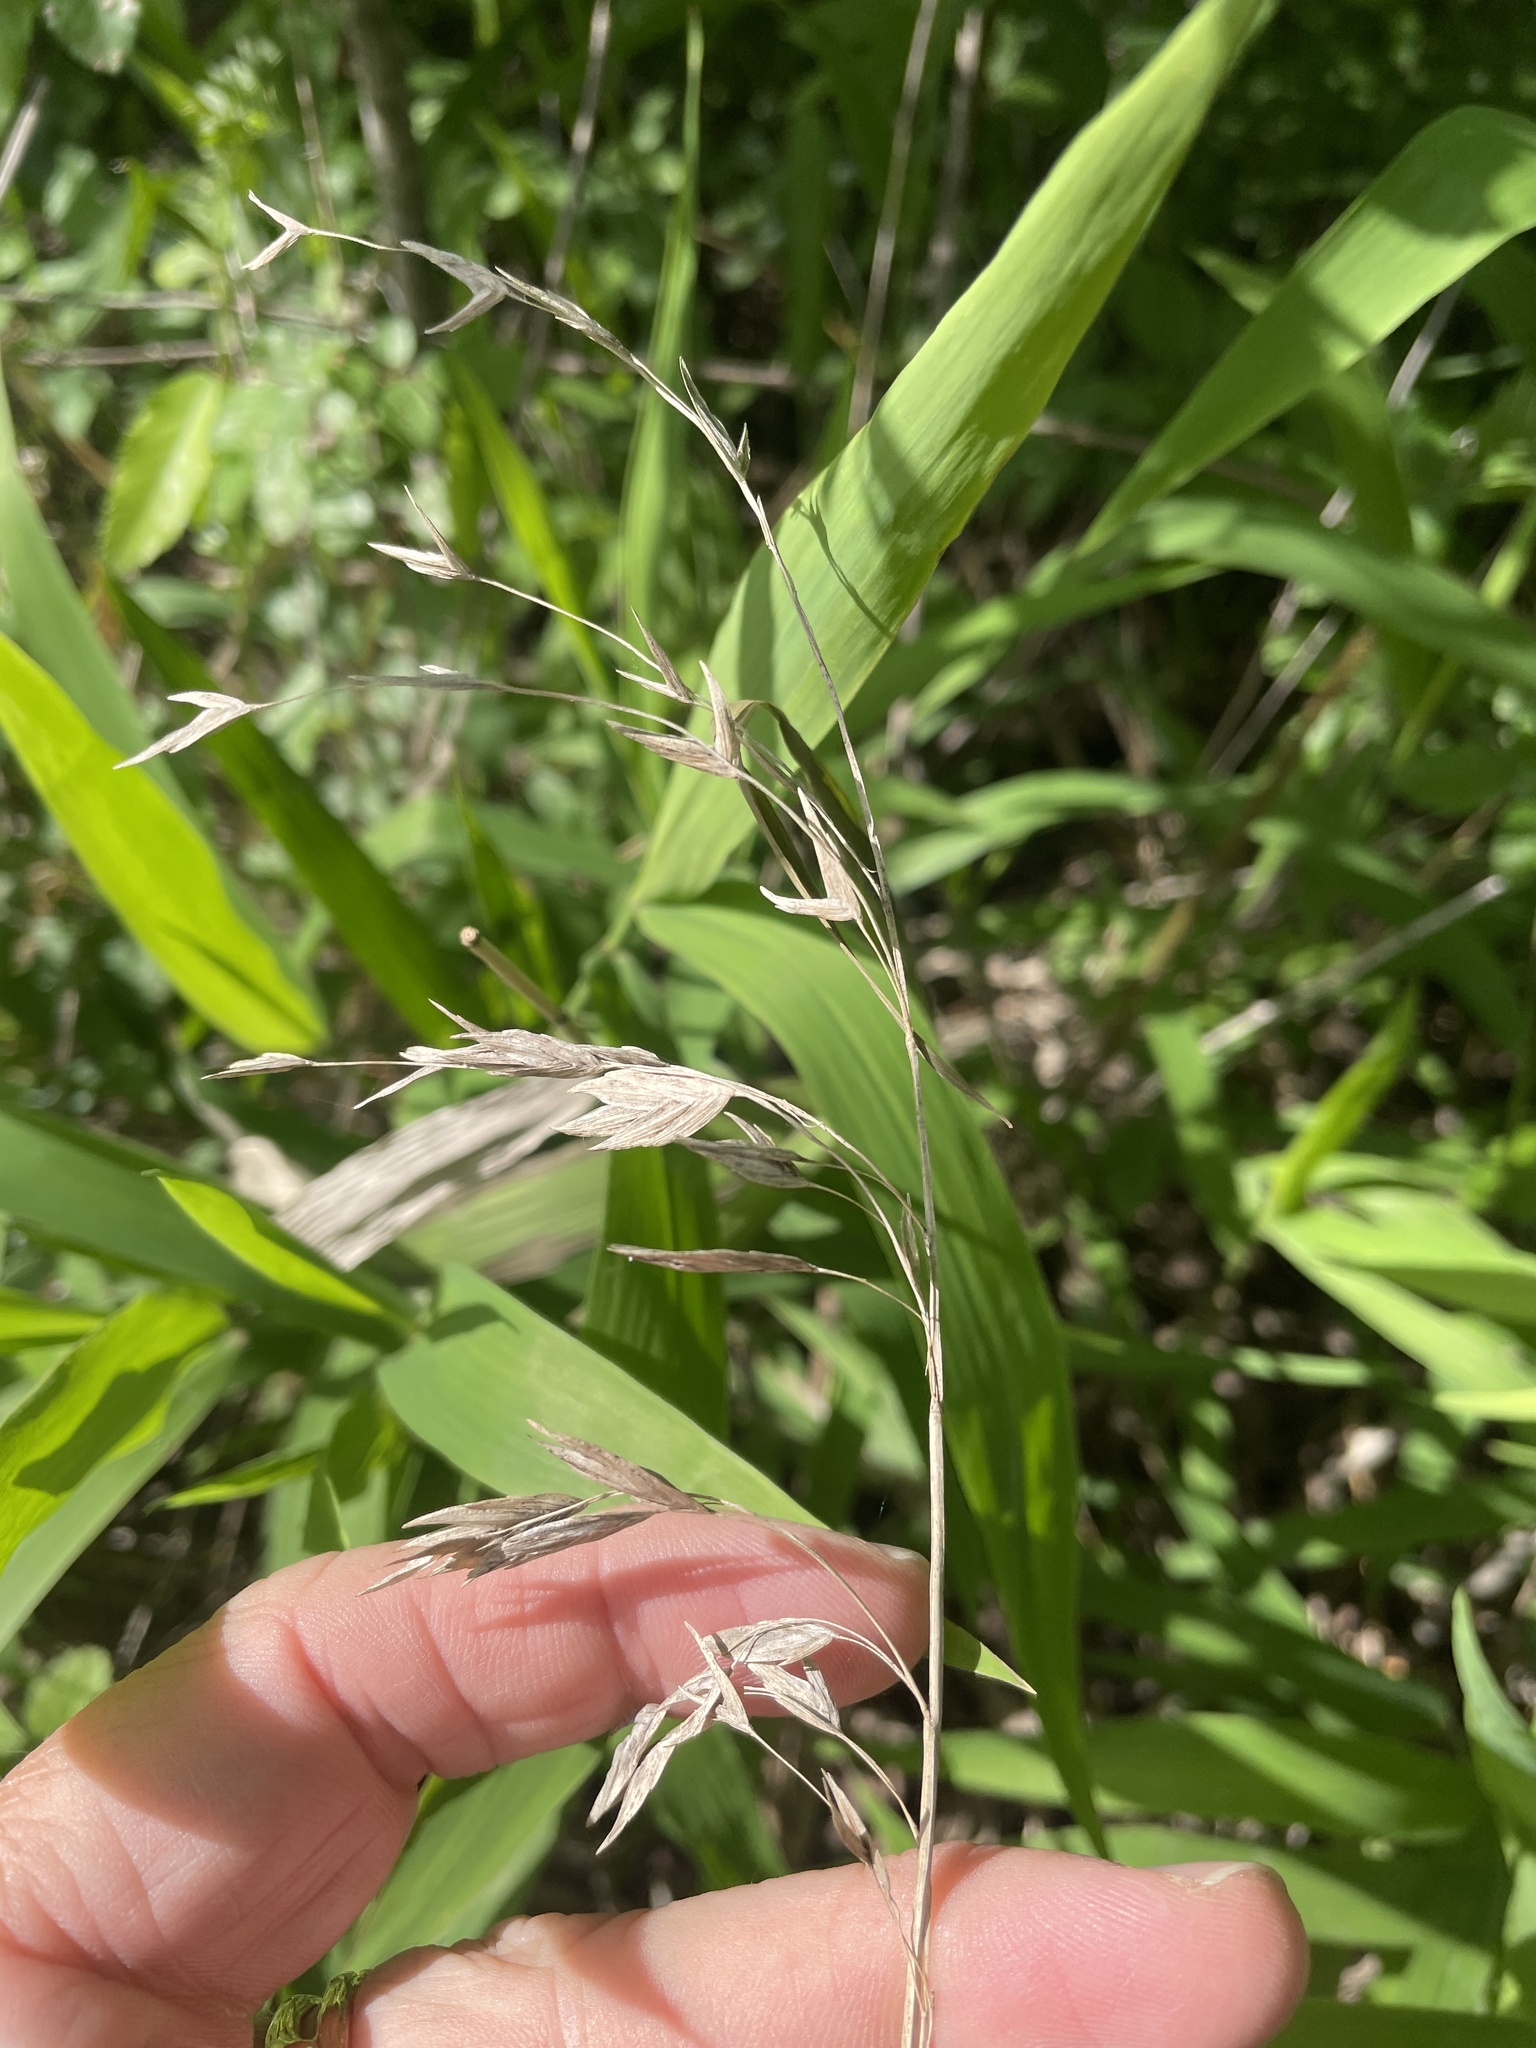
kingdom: Plantae
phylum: Tracheophyta
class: Liliopsida
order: Poales
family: Poaceae
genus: Chasmanthium
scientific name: Chasmanthium latifolium
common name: Broad-leaved chasmanthium
